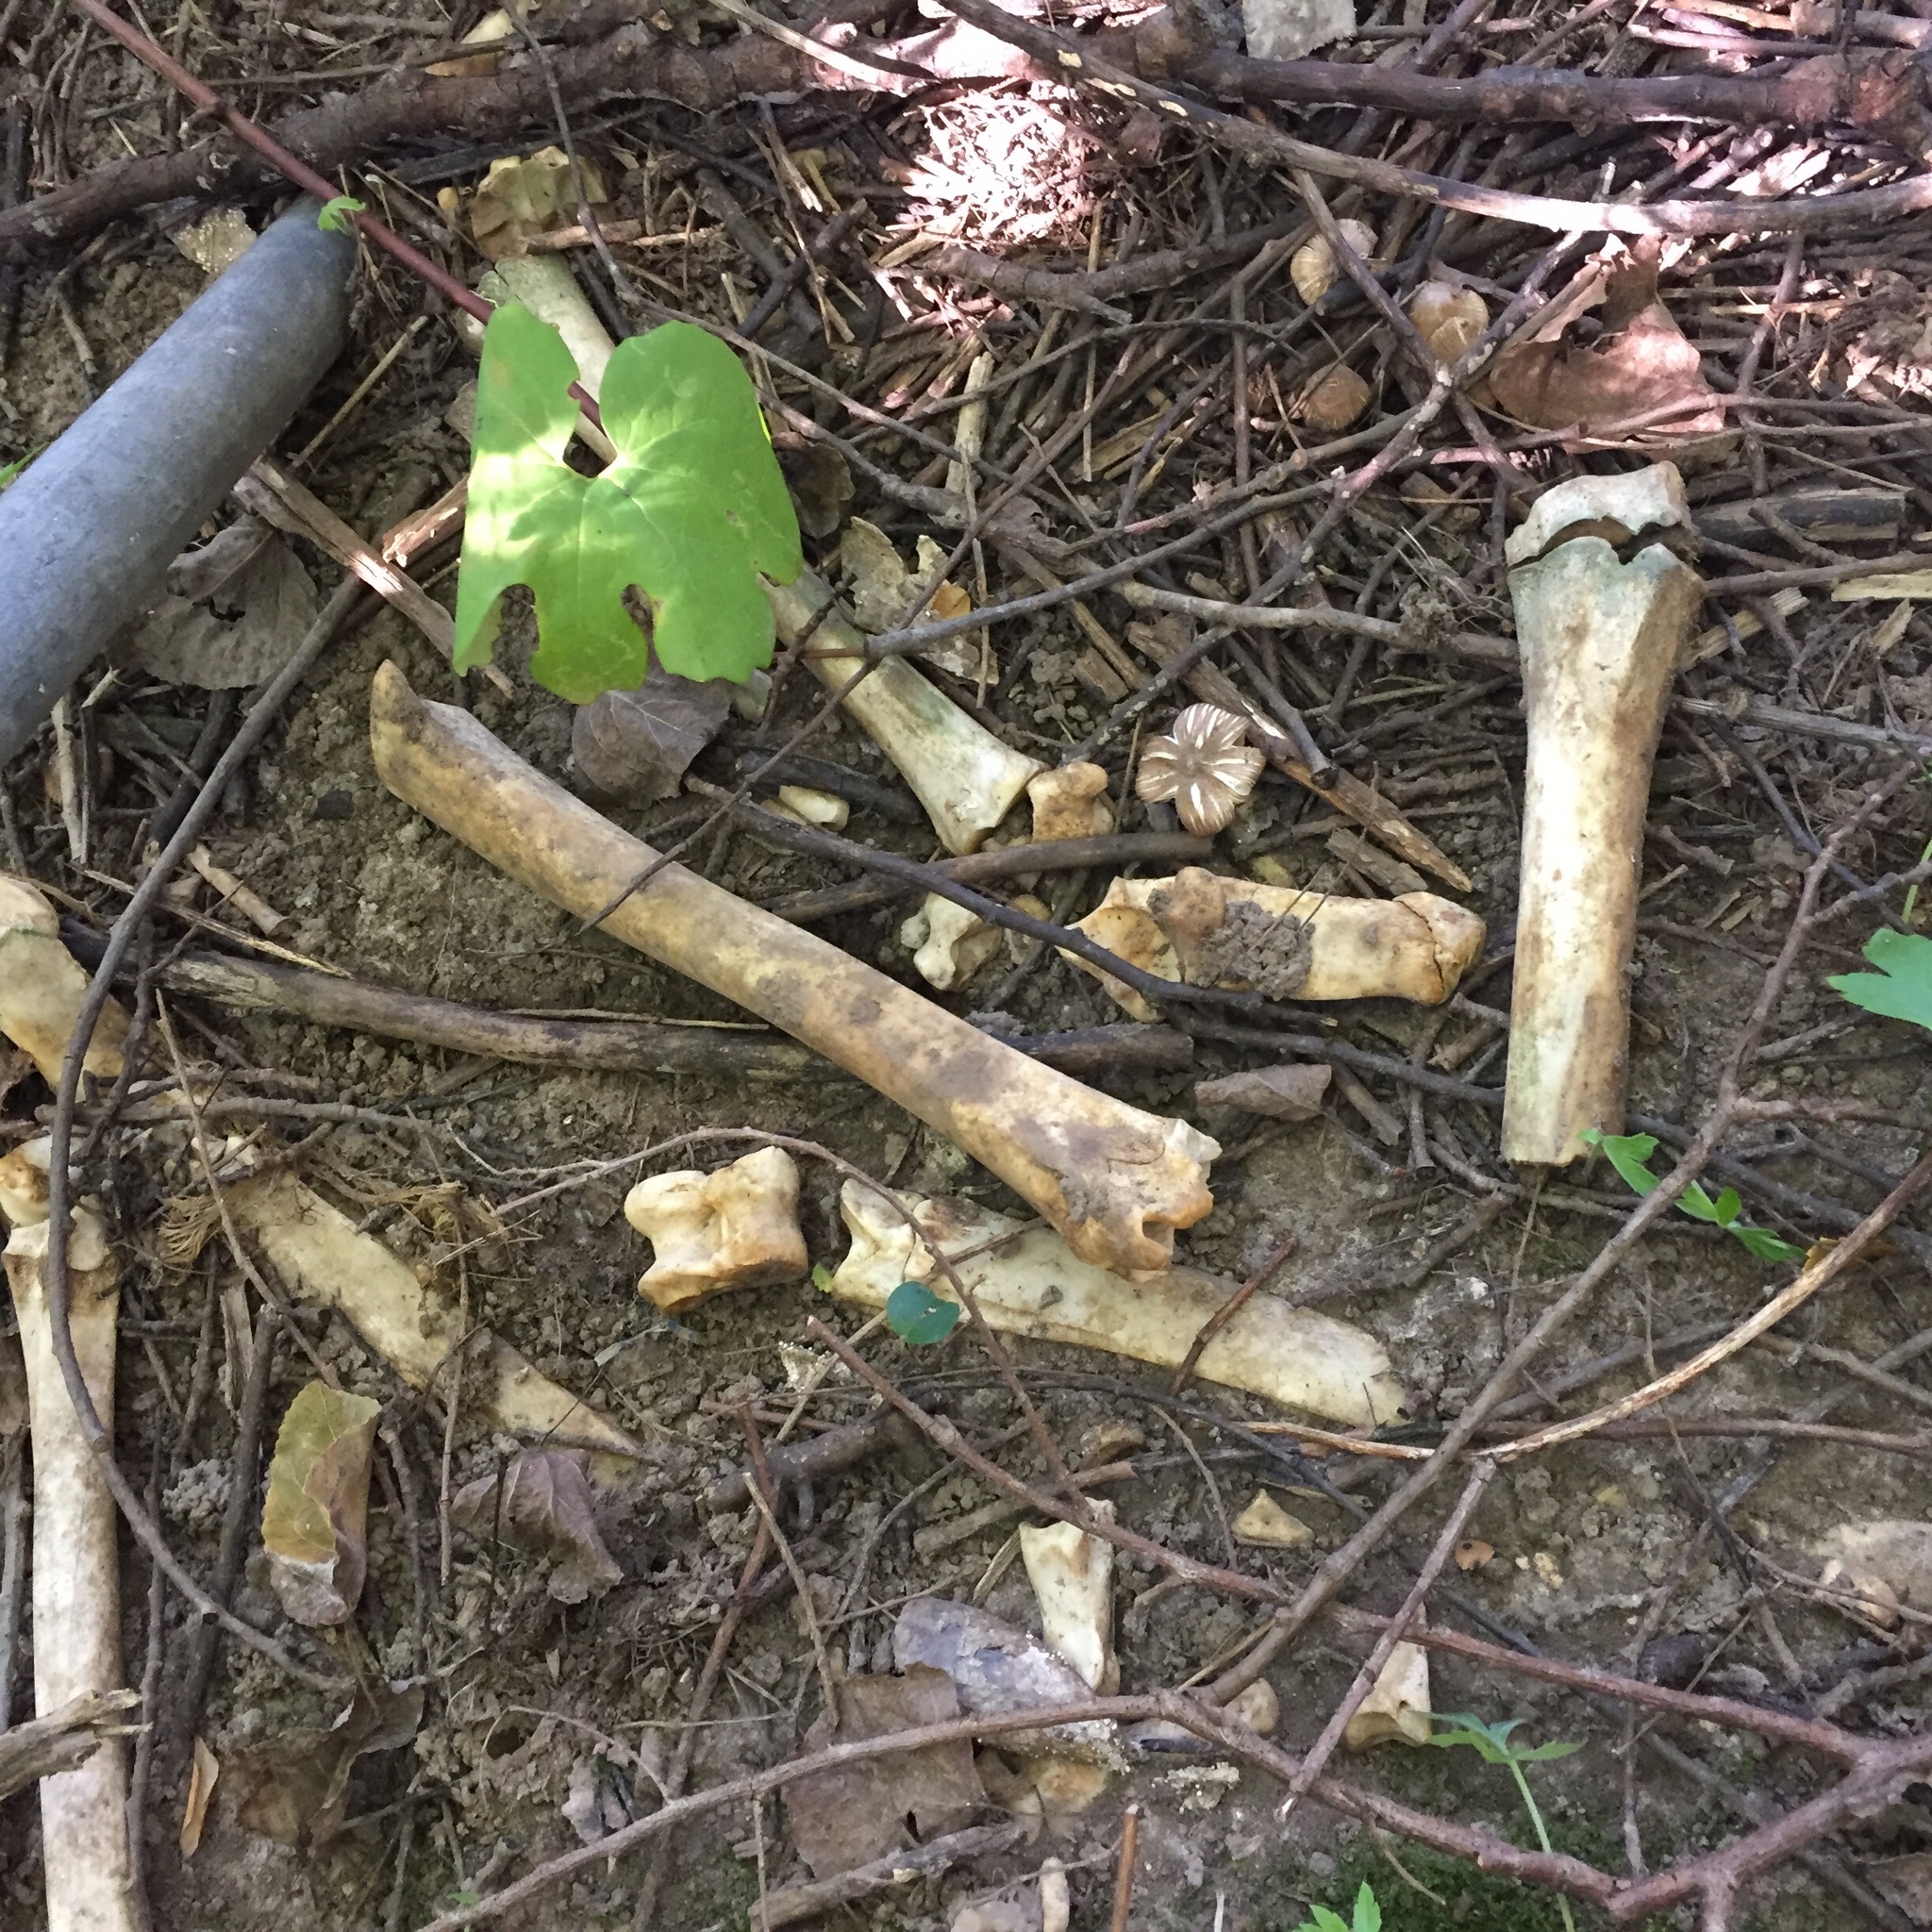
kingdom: Animalia
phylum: Chordata
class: Mammalia
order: Artiodactyla
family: Cervidae
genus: Odocoileus
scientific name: Odocoileus virginianus
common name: White-tailed deer
